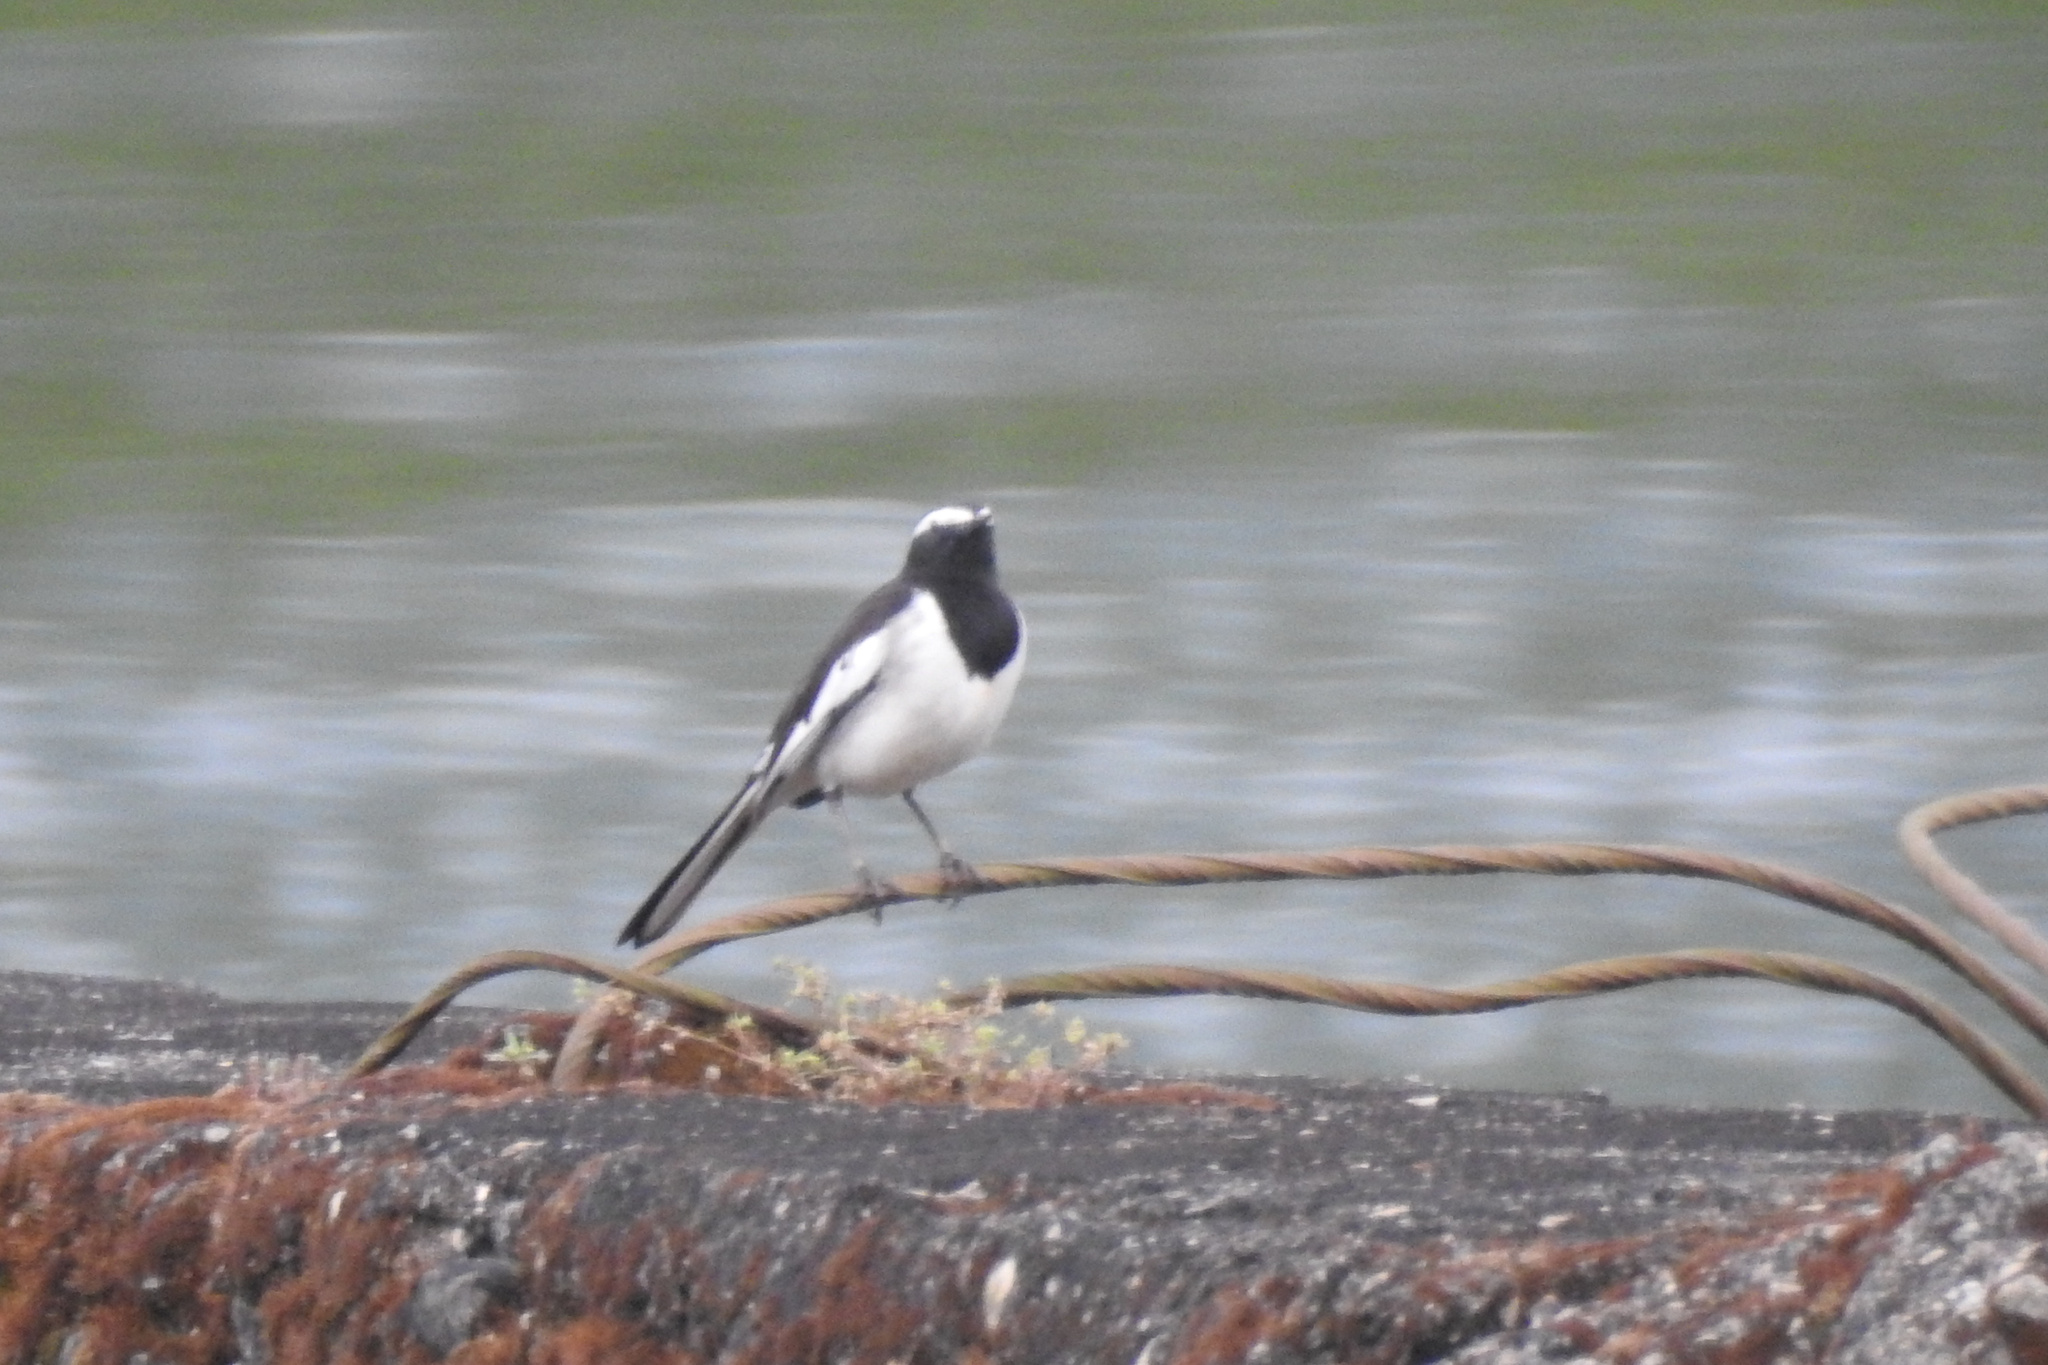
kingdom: Animalia
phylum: Chordata
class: Aves
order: Passeriformes
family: Motacillidae
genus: Motacilla
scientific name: Motacilla maderaspatensis
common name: White-browed wagtail
